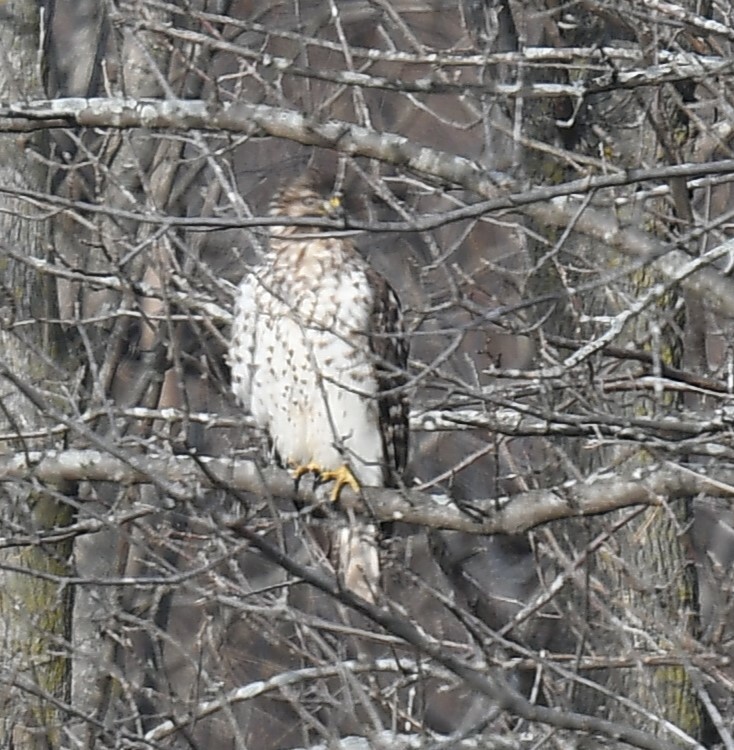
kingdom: Animalia
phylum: Chordata
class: Aves
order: Accipitriformes
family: Accipitridae
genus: Buteo
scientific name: Buteo lineatus
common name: Red-shouldered hawk
